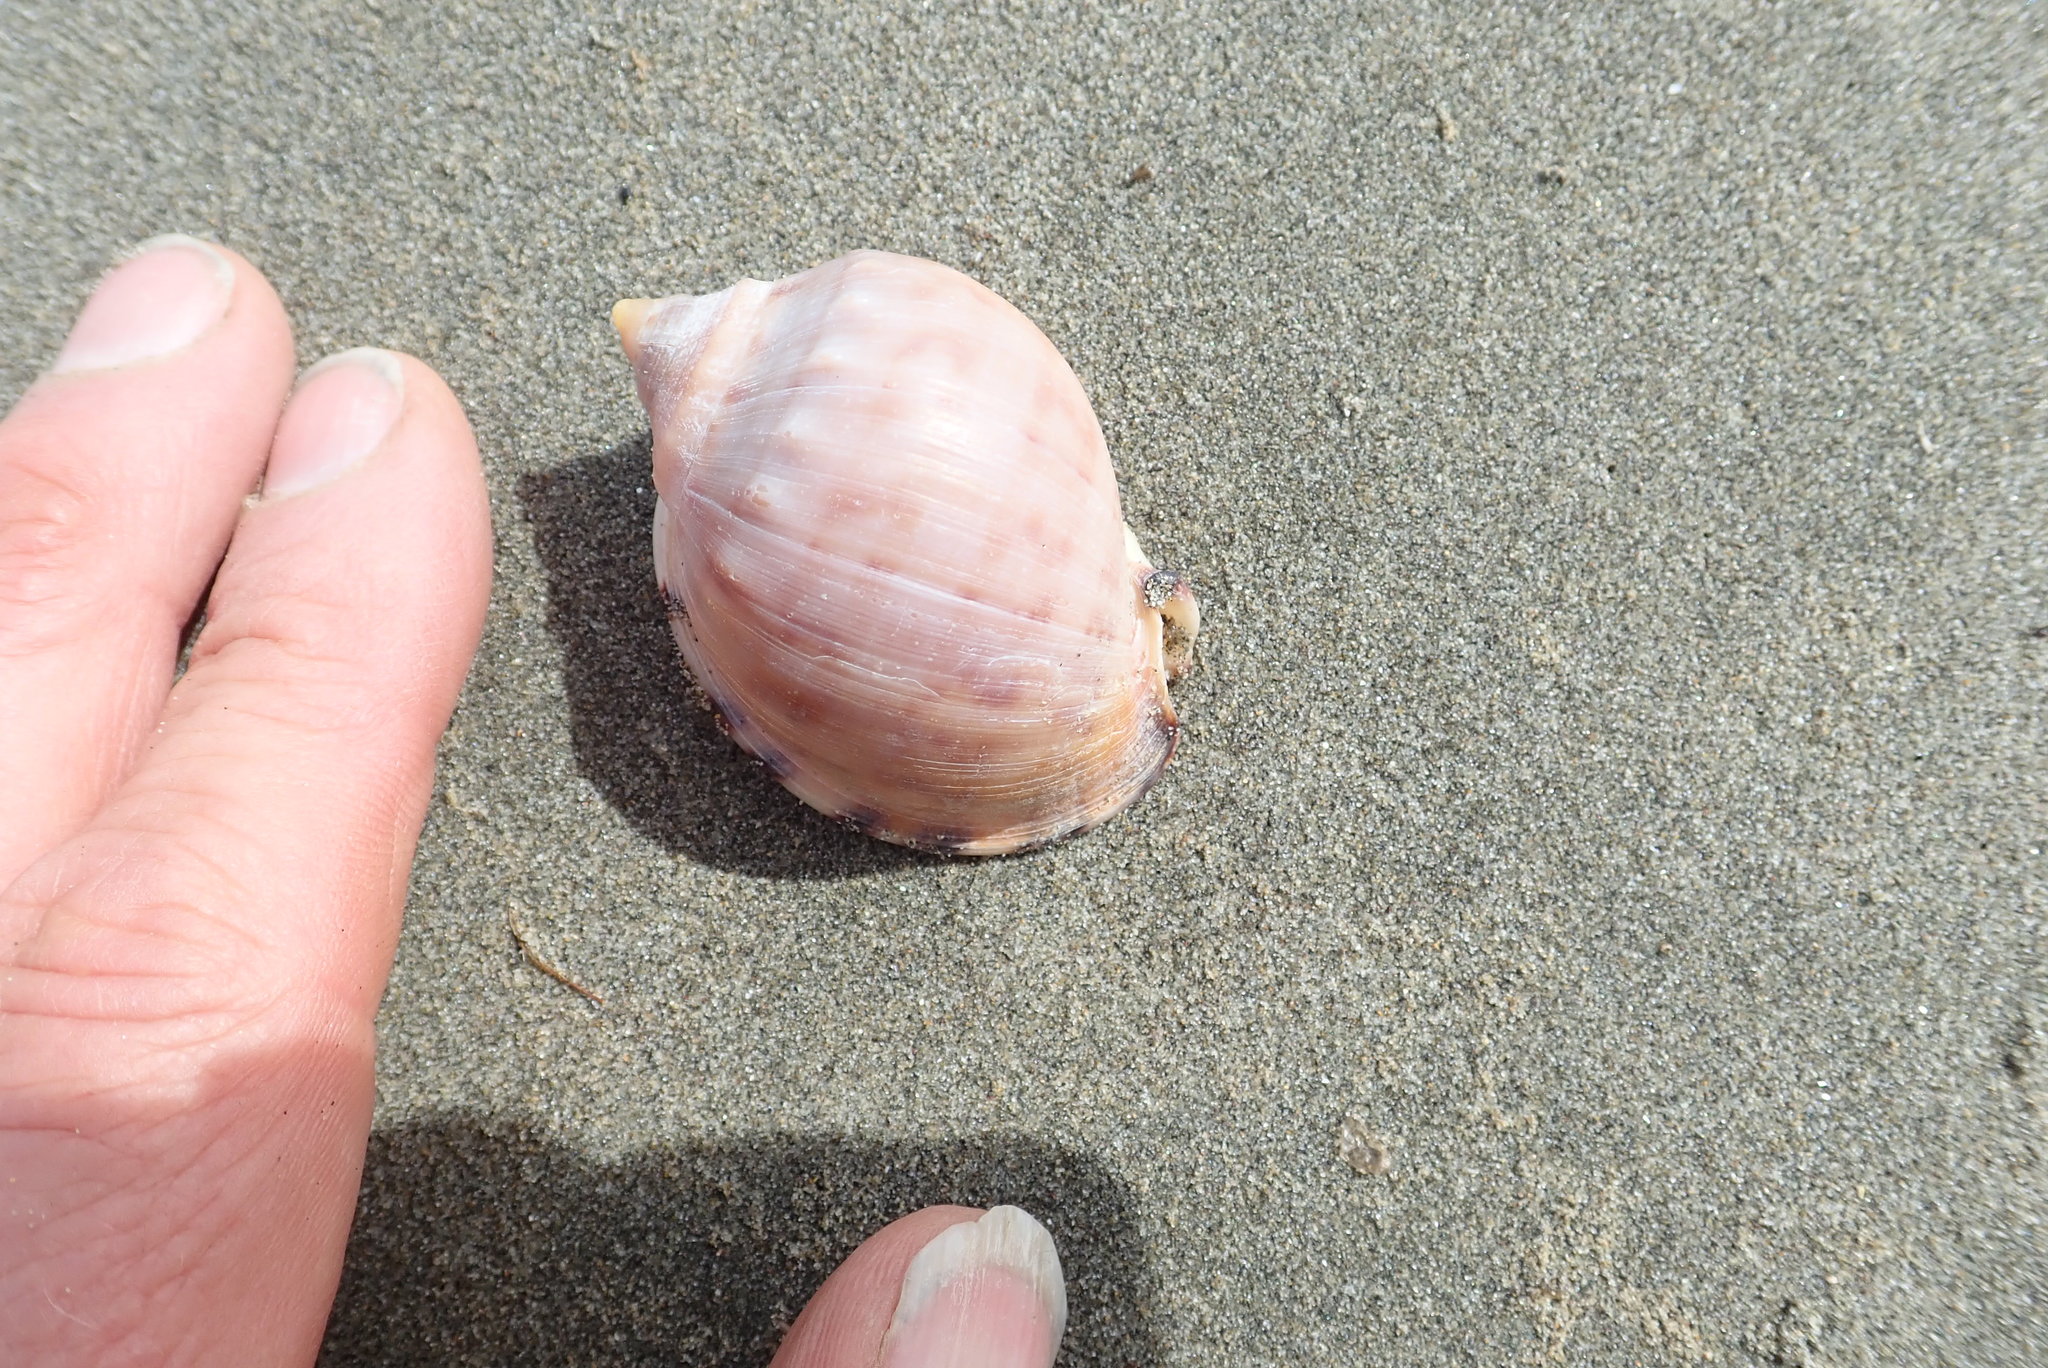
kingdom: Animalia
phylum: Mollusca
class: Gastropoda
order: Littorinimorpha
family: Cassidae
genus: Semicassis
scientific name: Semicassis pyrum
